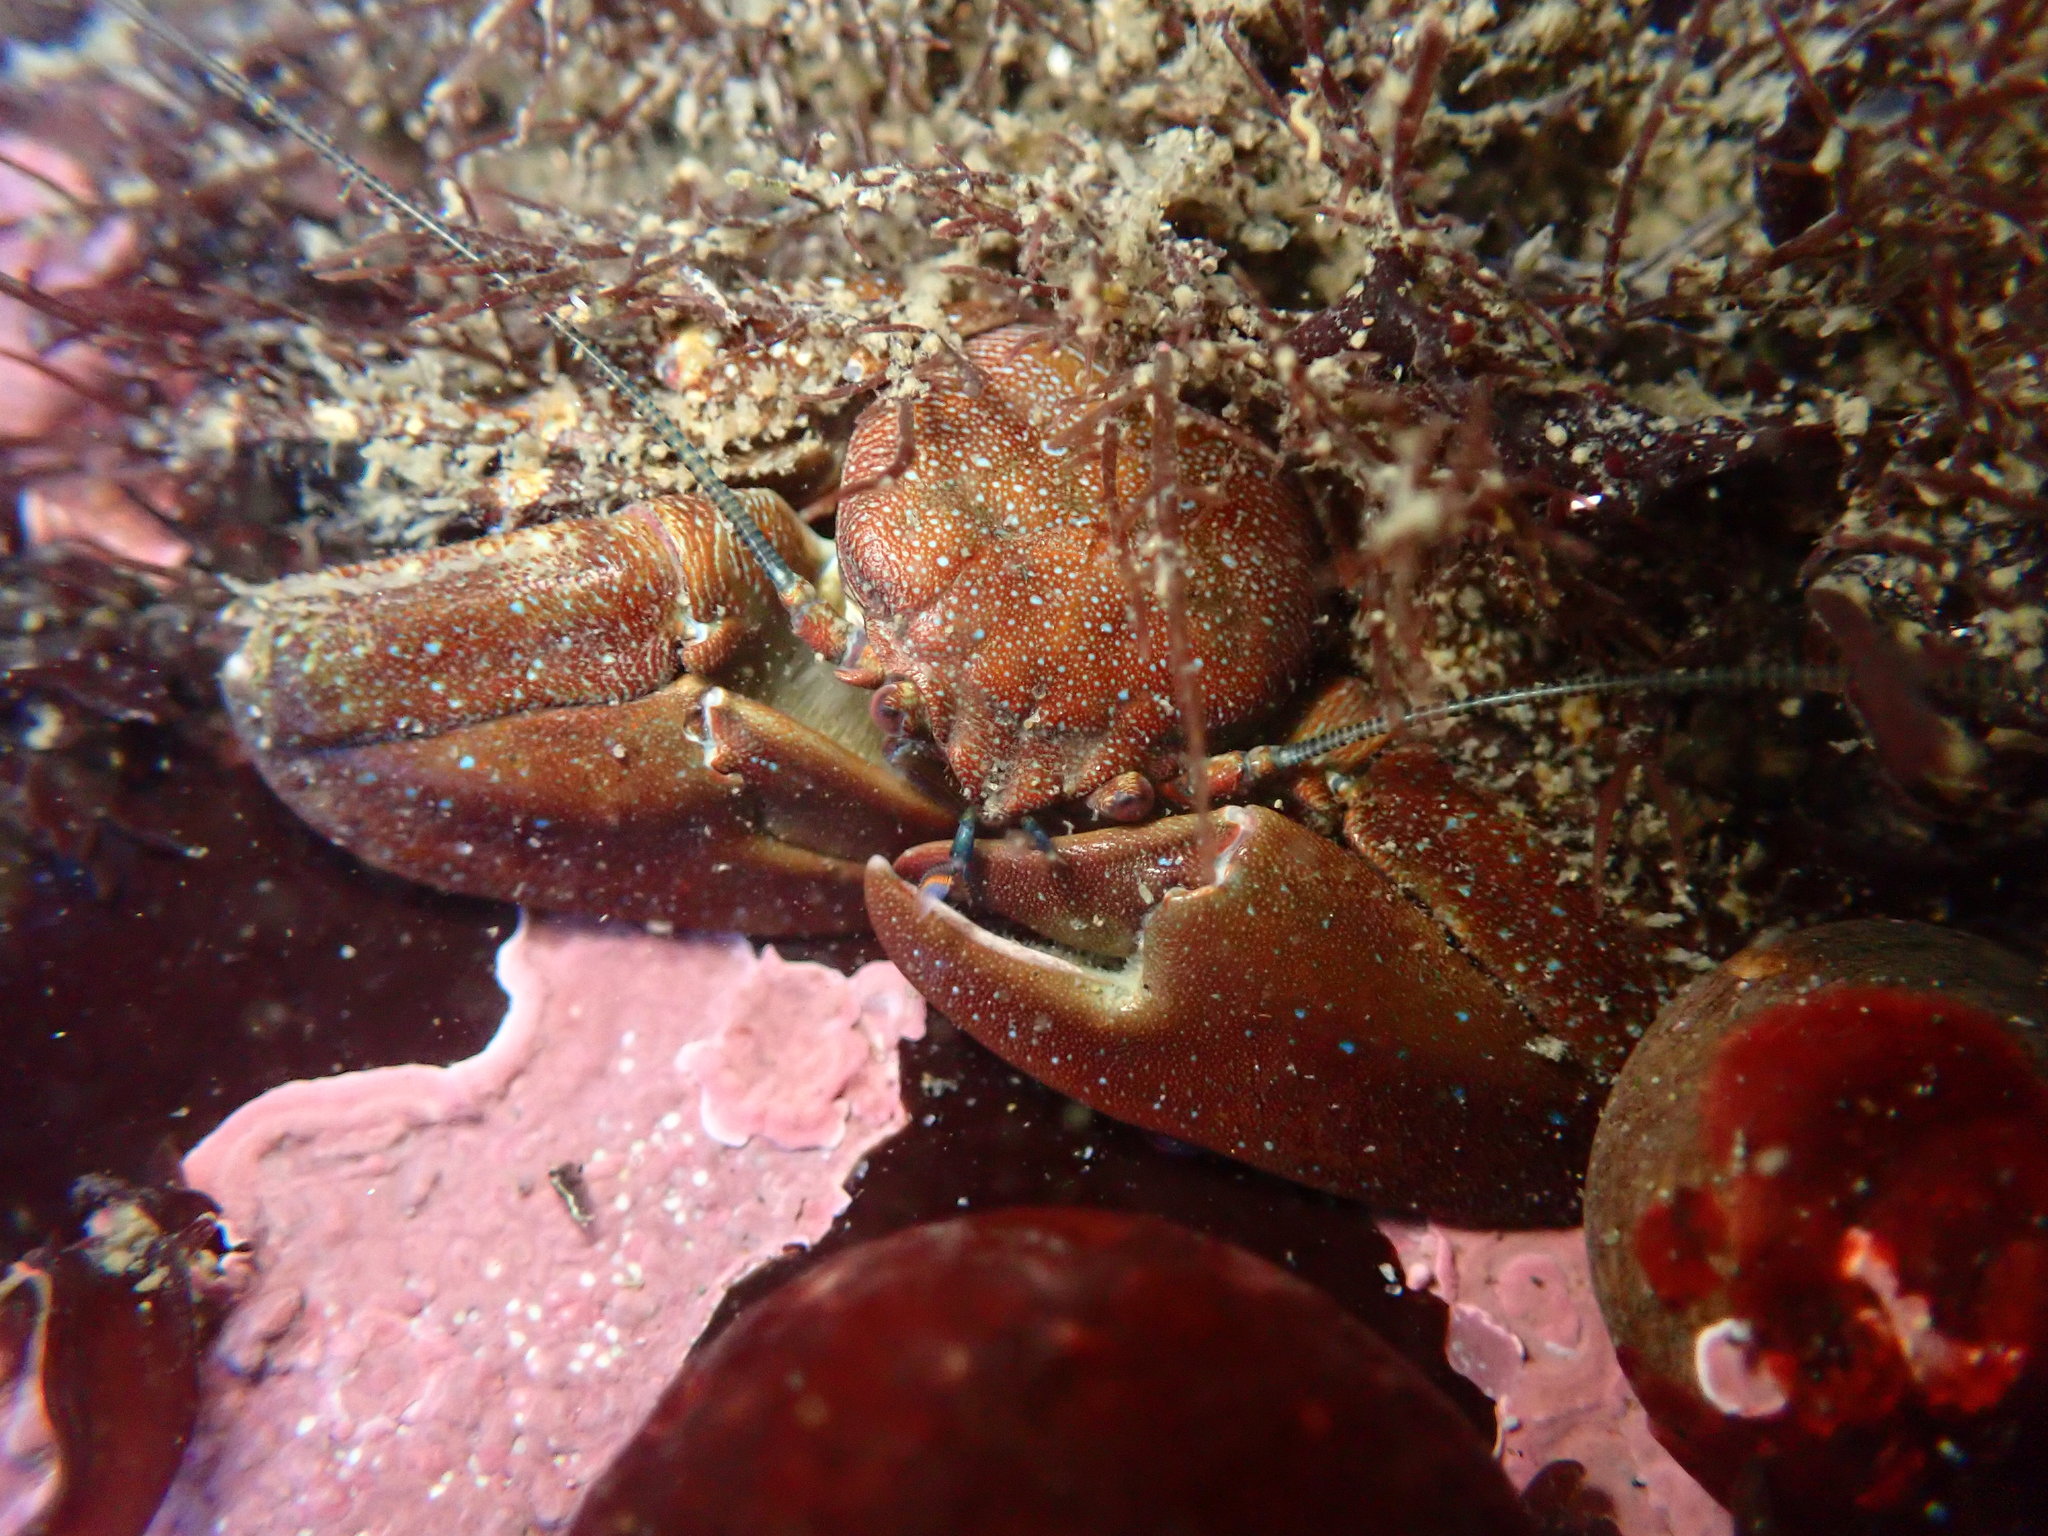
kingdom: Animalia
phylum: Arthropoda
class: Malacostraca
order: Decapoda
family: Porcellanidae
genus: Petrolisthes
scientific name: Petrolisthes manimaculis
